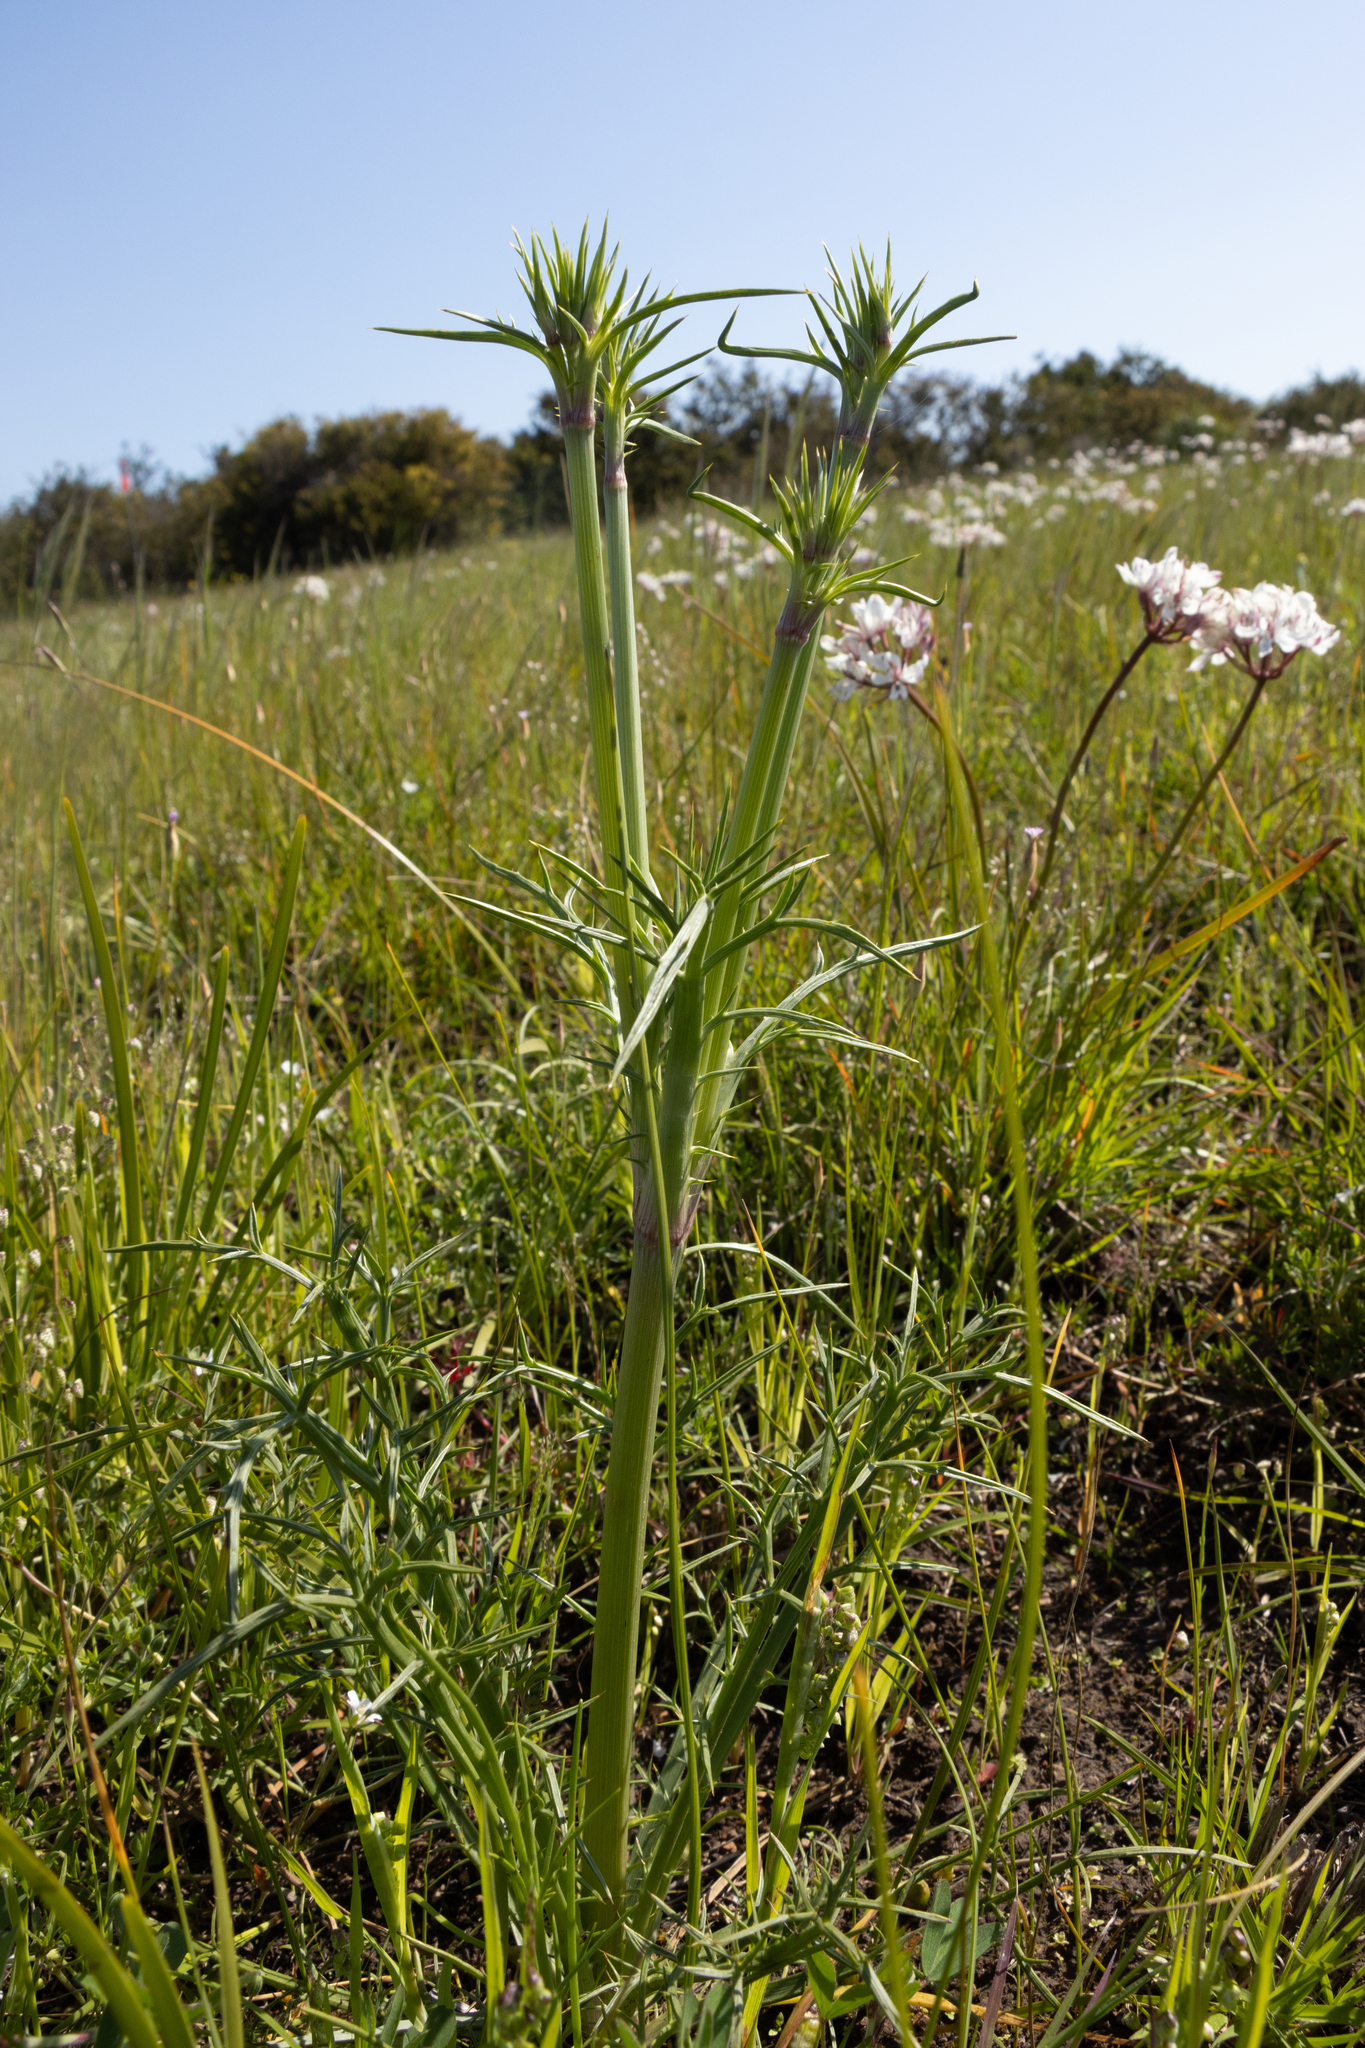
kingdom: Plantae
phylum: Tracheophyta
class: Magnoliopsida
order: Apiales
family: Apiaceae
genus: Eryngium
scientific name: Eryngium ovinum
